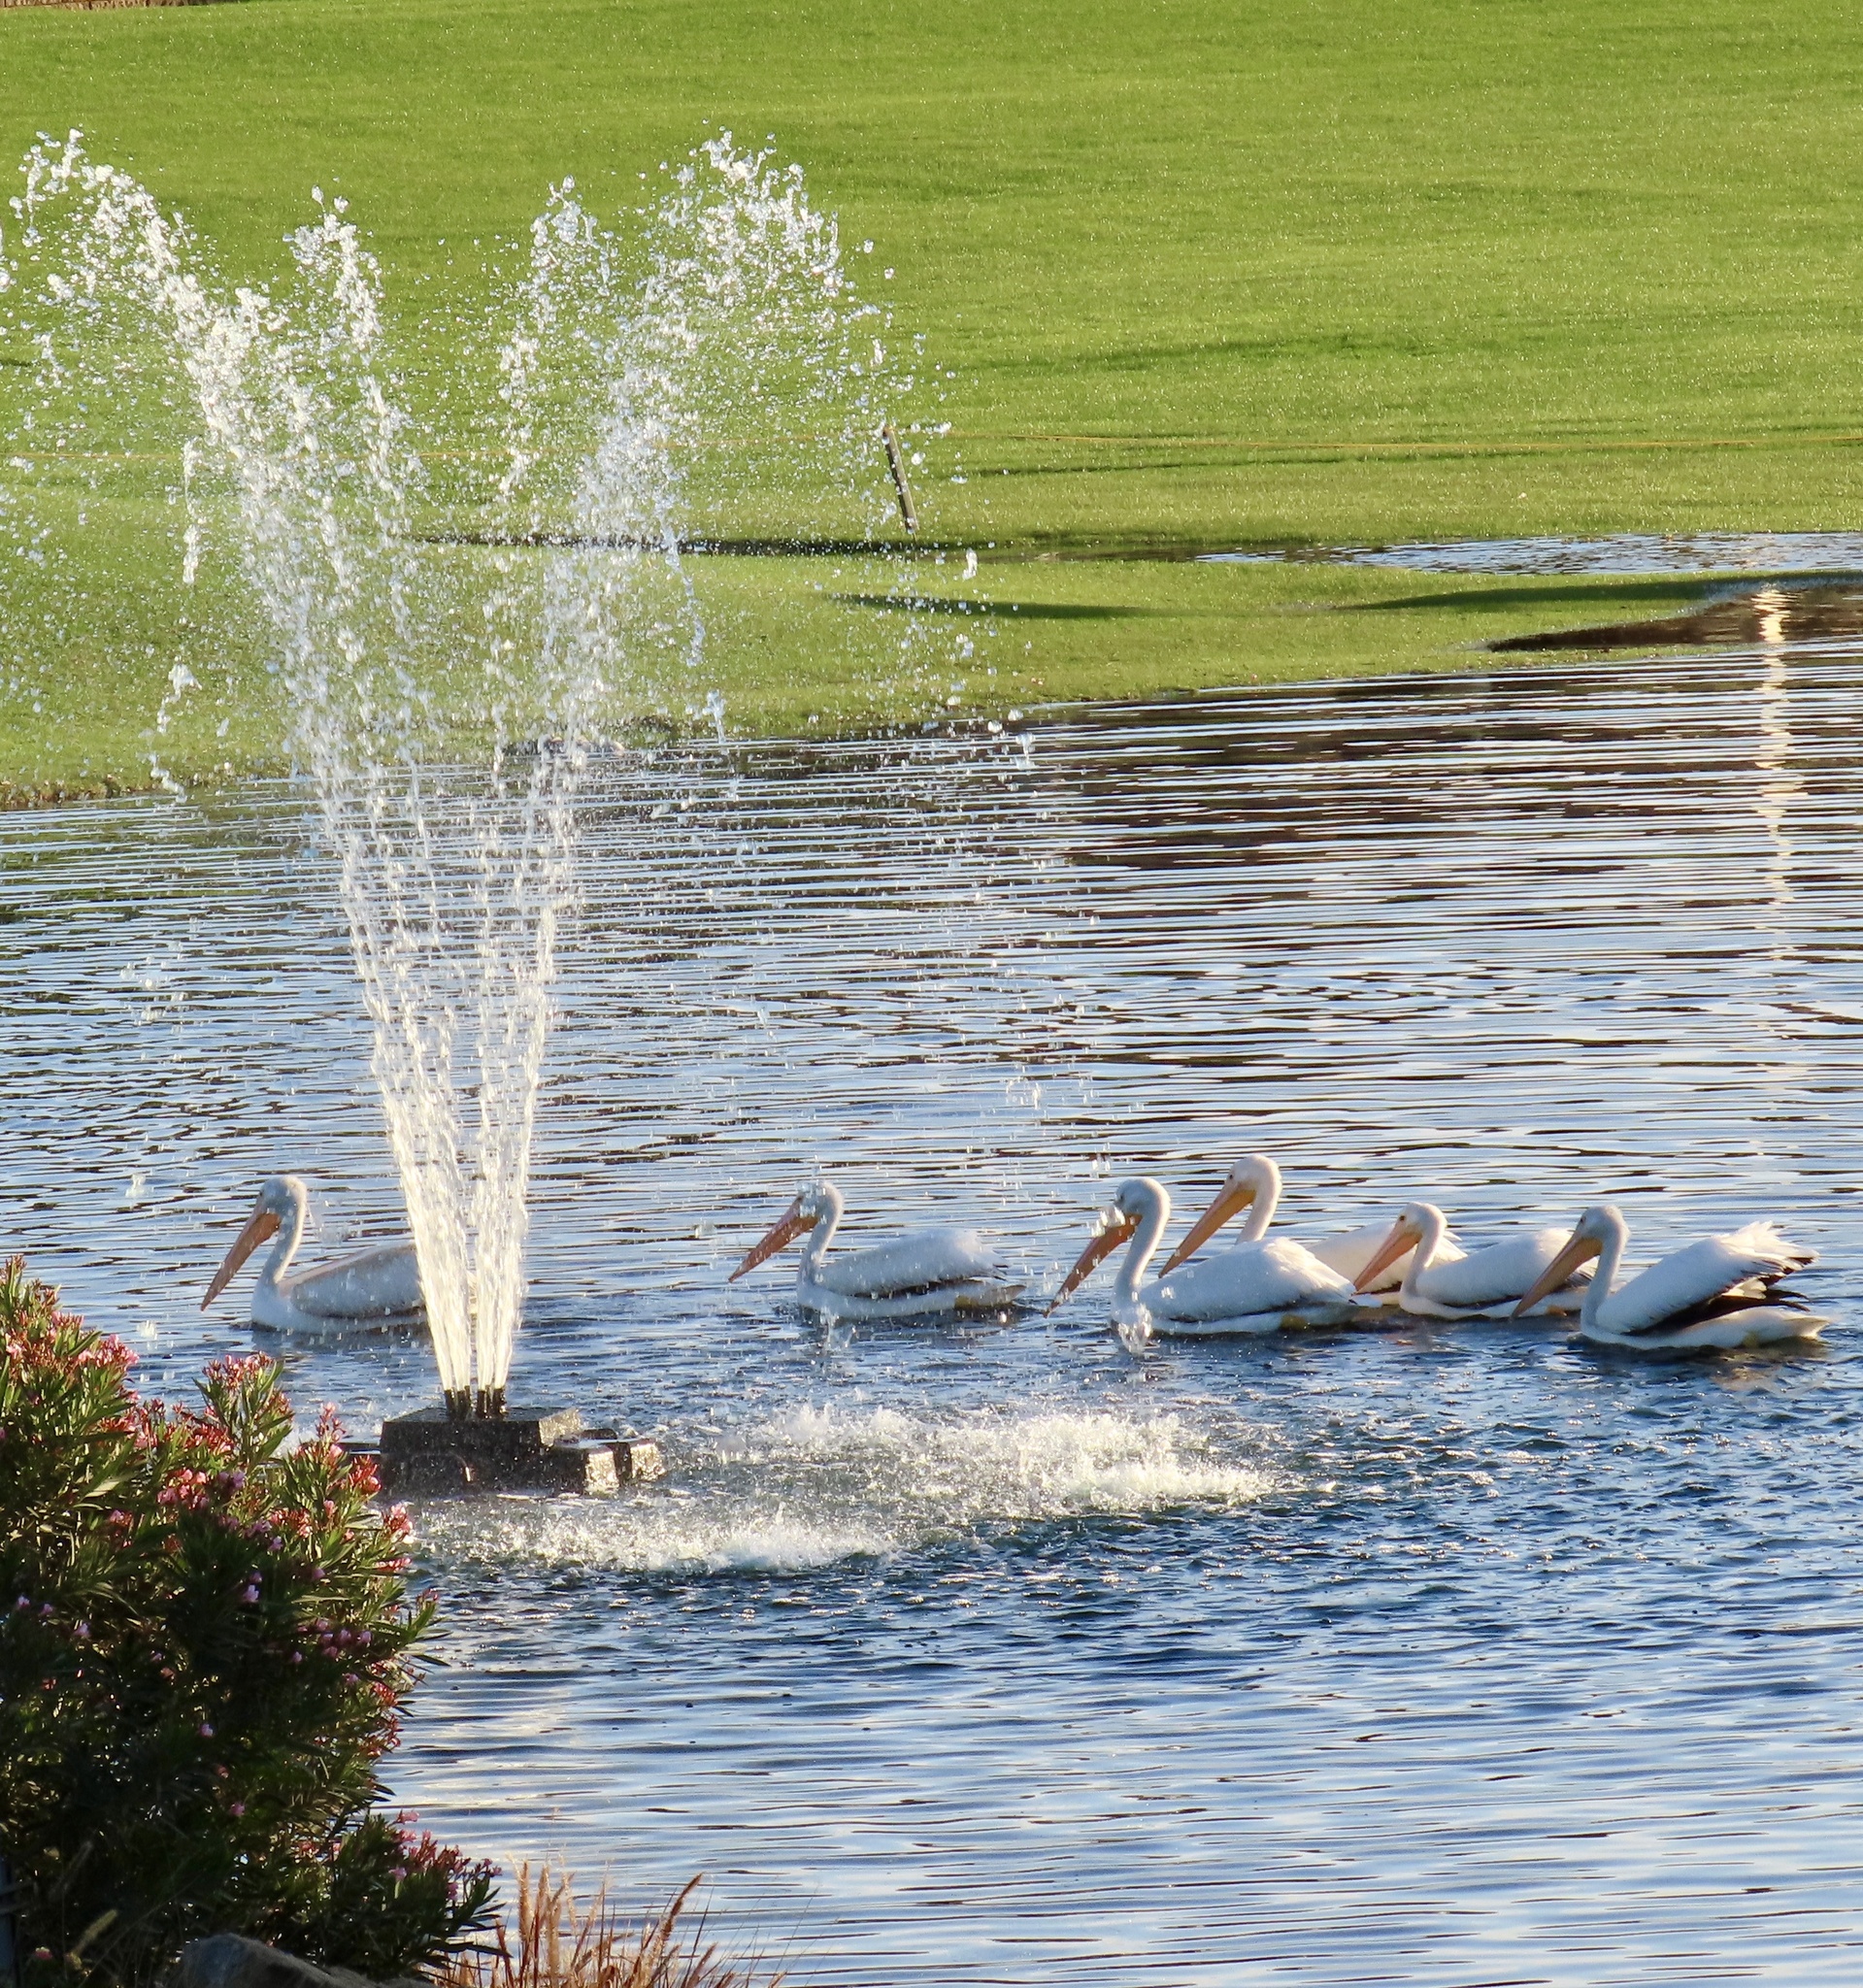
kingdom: Animalia
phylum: Chordata
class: Aves
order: Pelecaniformes
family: Pelecanidae
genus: Pelecanus
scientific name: Pelecanus erythrorhynchos
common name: American white pelican
